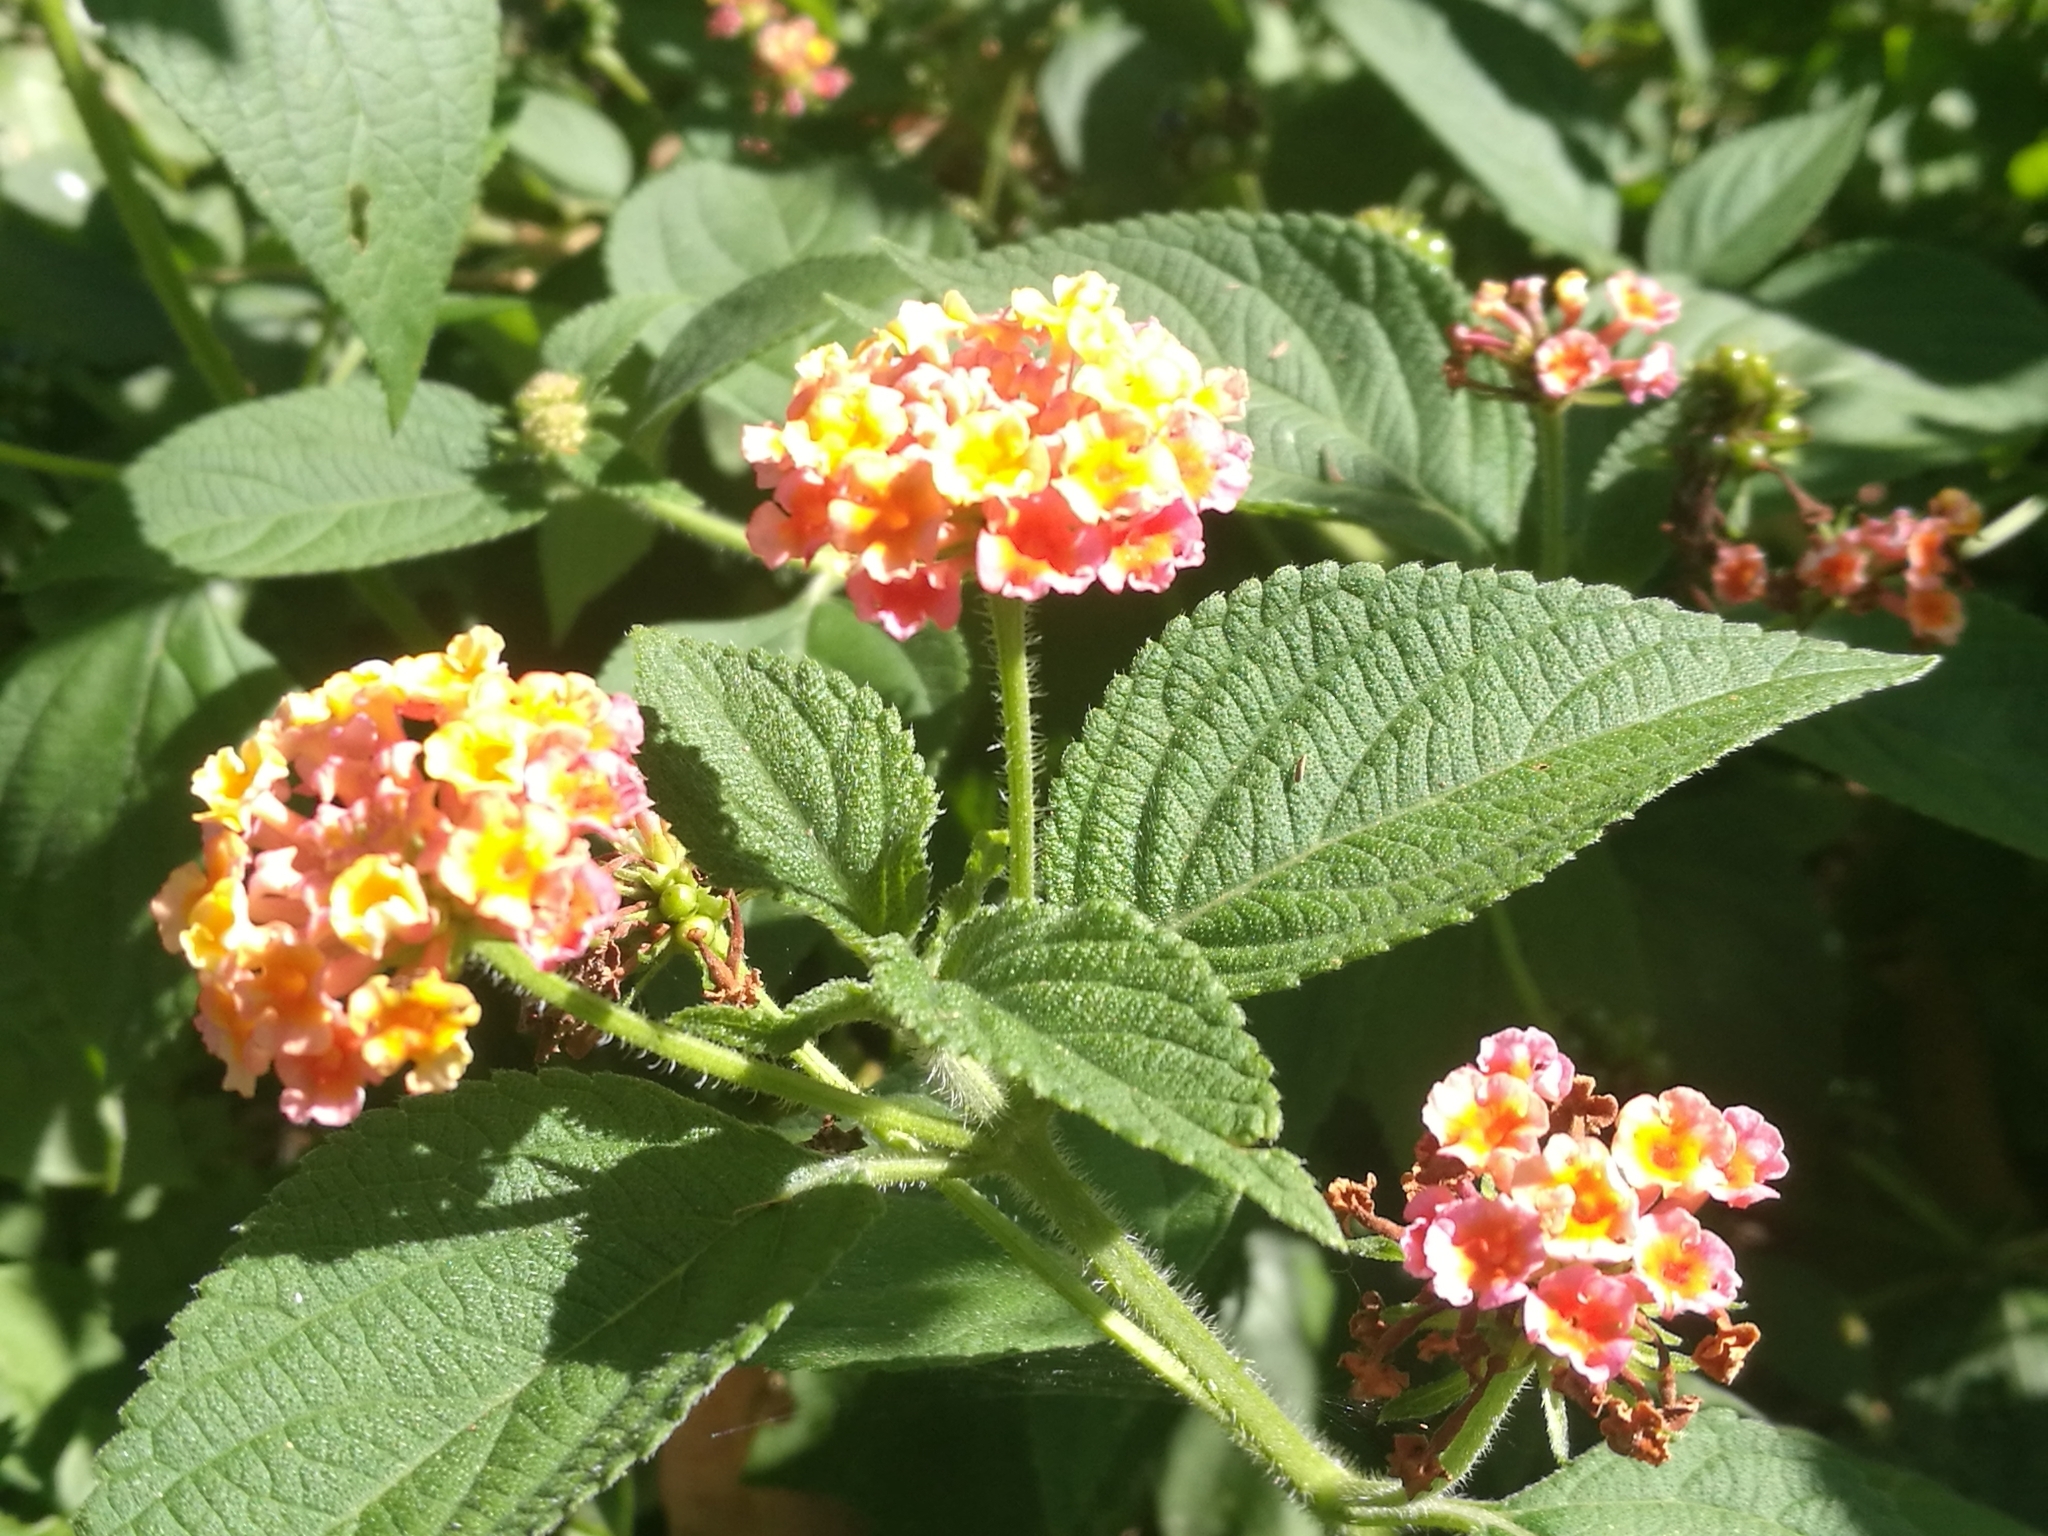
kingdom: Plantae
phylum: Tracheophyta
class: Magnoliopsida
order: Lamiales
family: Verbenaceae
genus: Lantana
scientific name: Lantana camara
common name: Lantana
